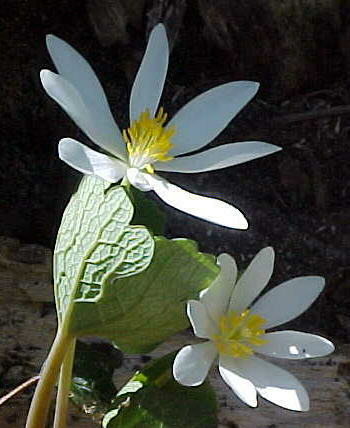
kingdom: Plantae
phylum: Tracheophyta
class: Magnoliopsida
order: Ranunculales
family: Papaveraceae
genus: Sanguinaria
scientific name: Sanguinaria canadensis
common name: Bloodroot
